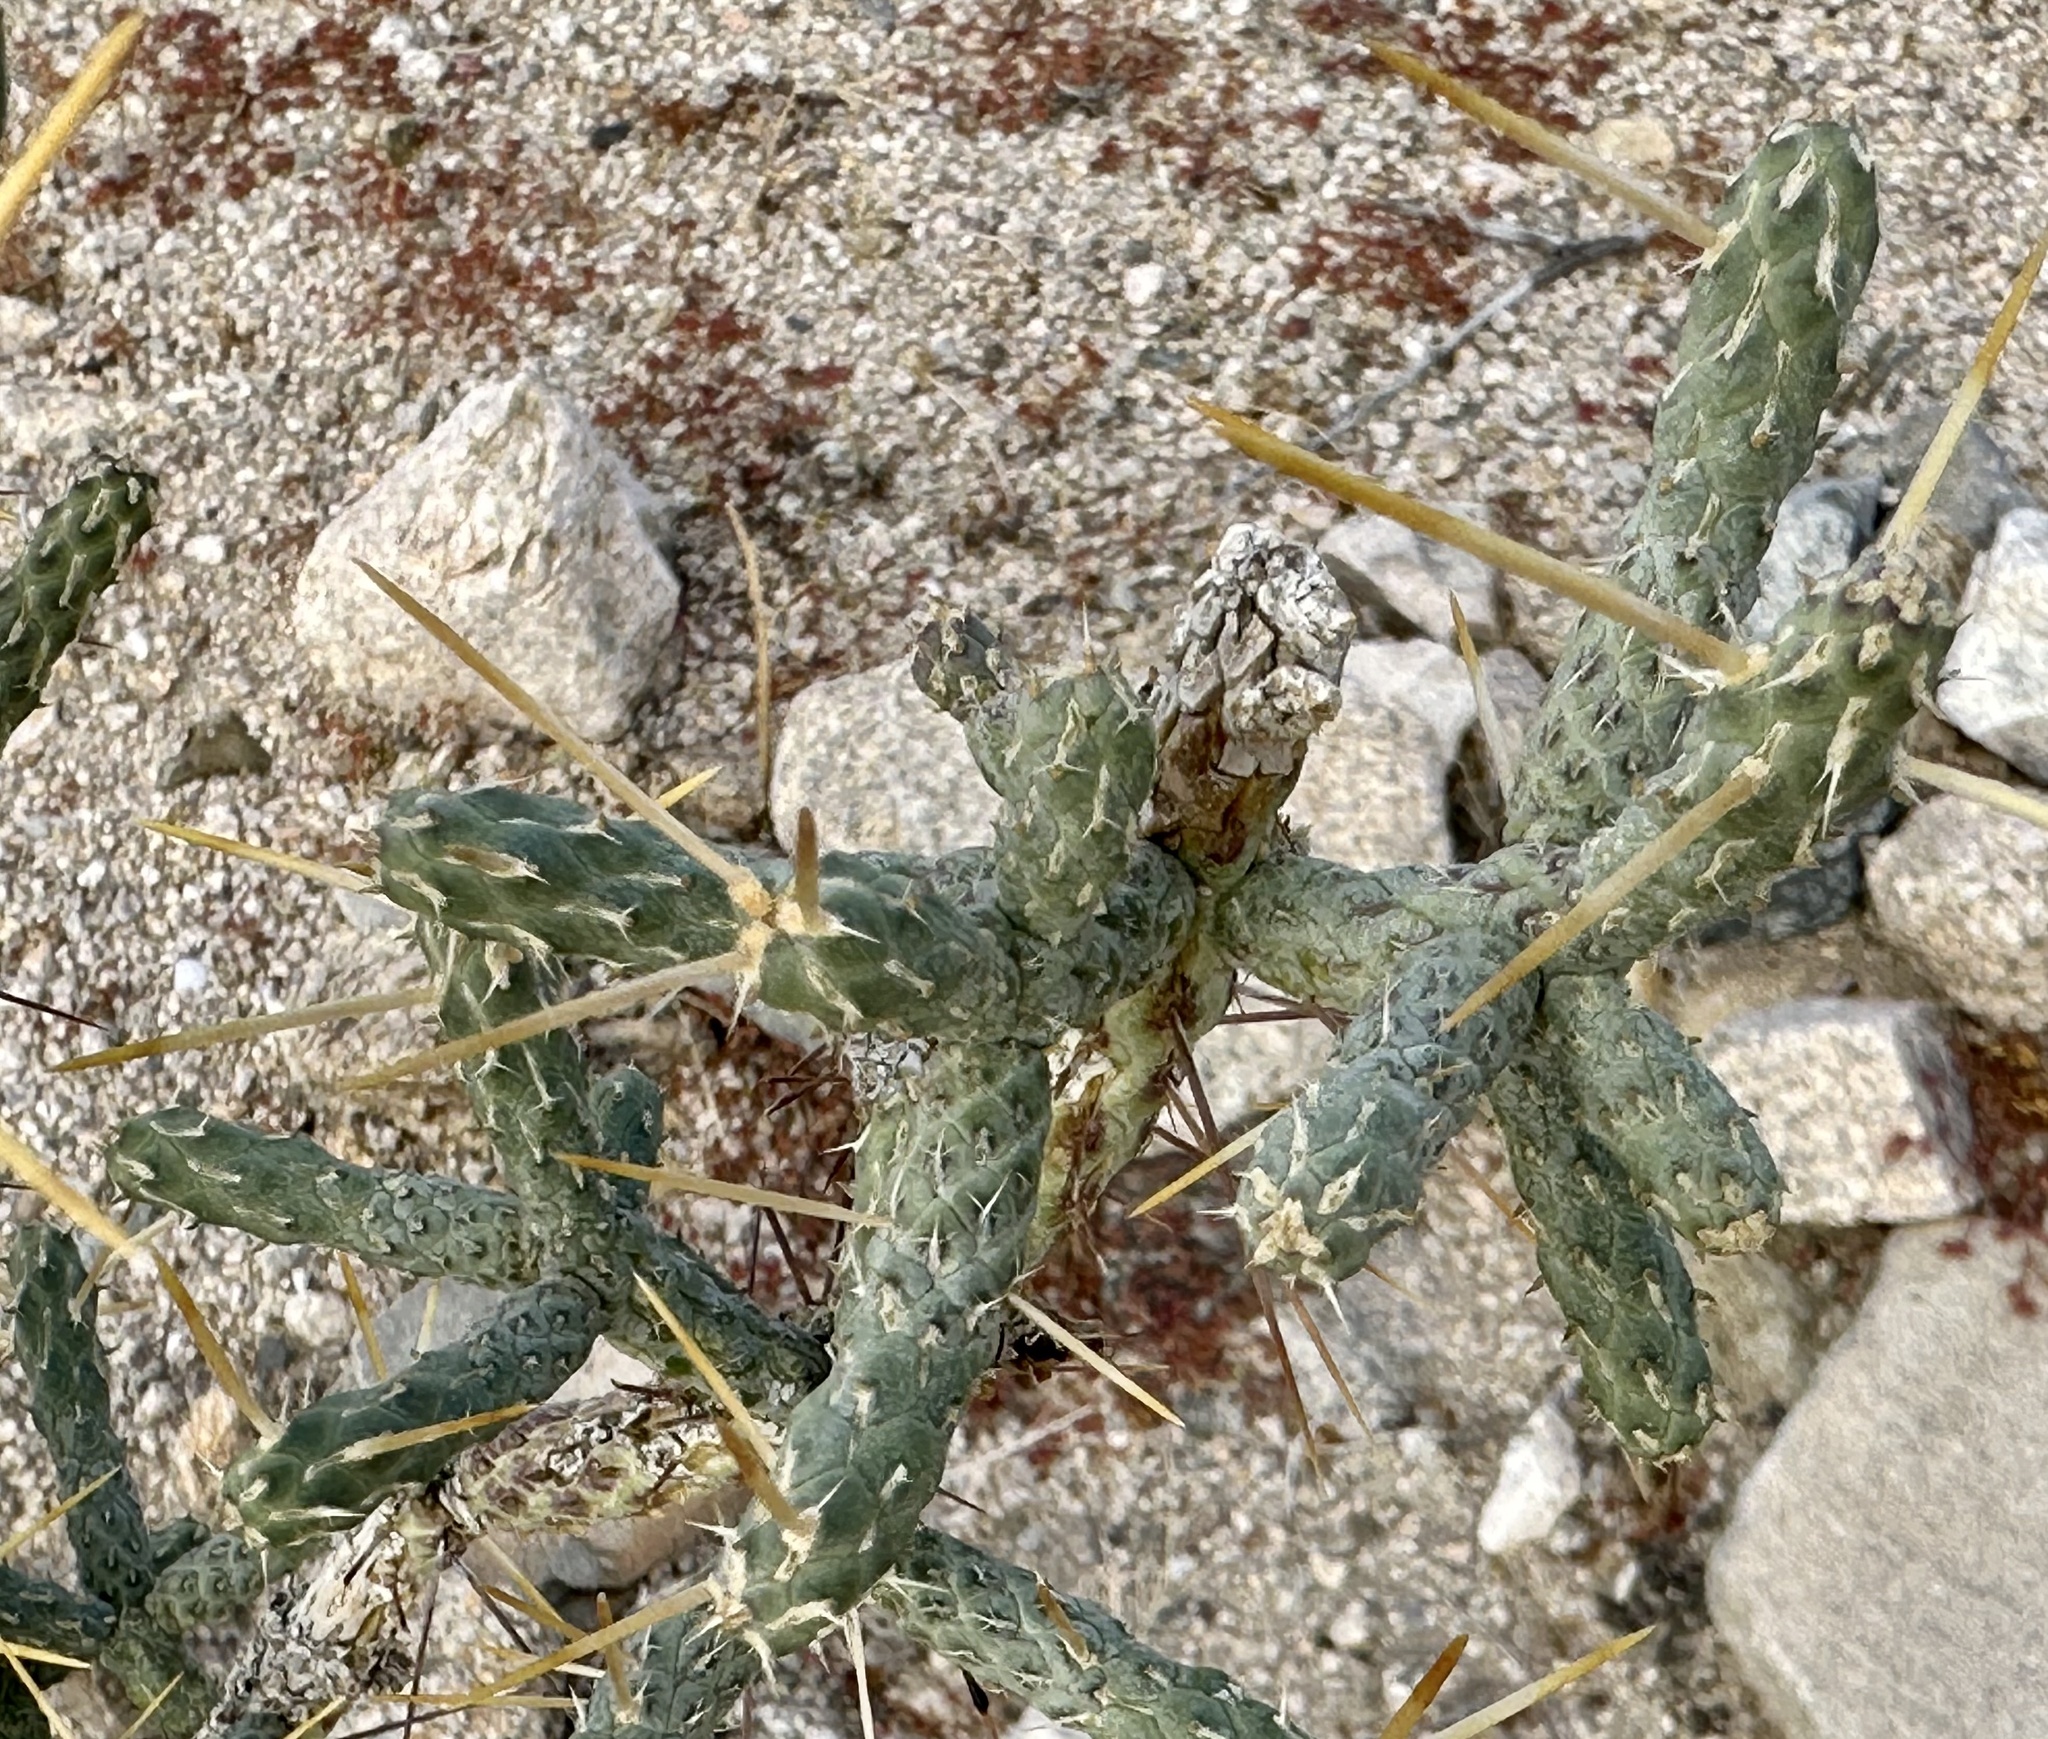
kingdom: Plantae
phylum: Tracheophyta
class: Magnoliopsida
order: Caryophyllales
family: Cactaceae
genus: Cylindropuntia
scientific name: Cylindropuntia ramosissima
